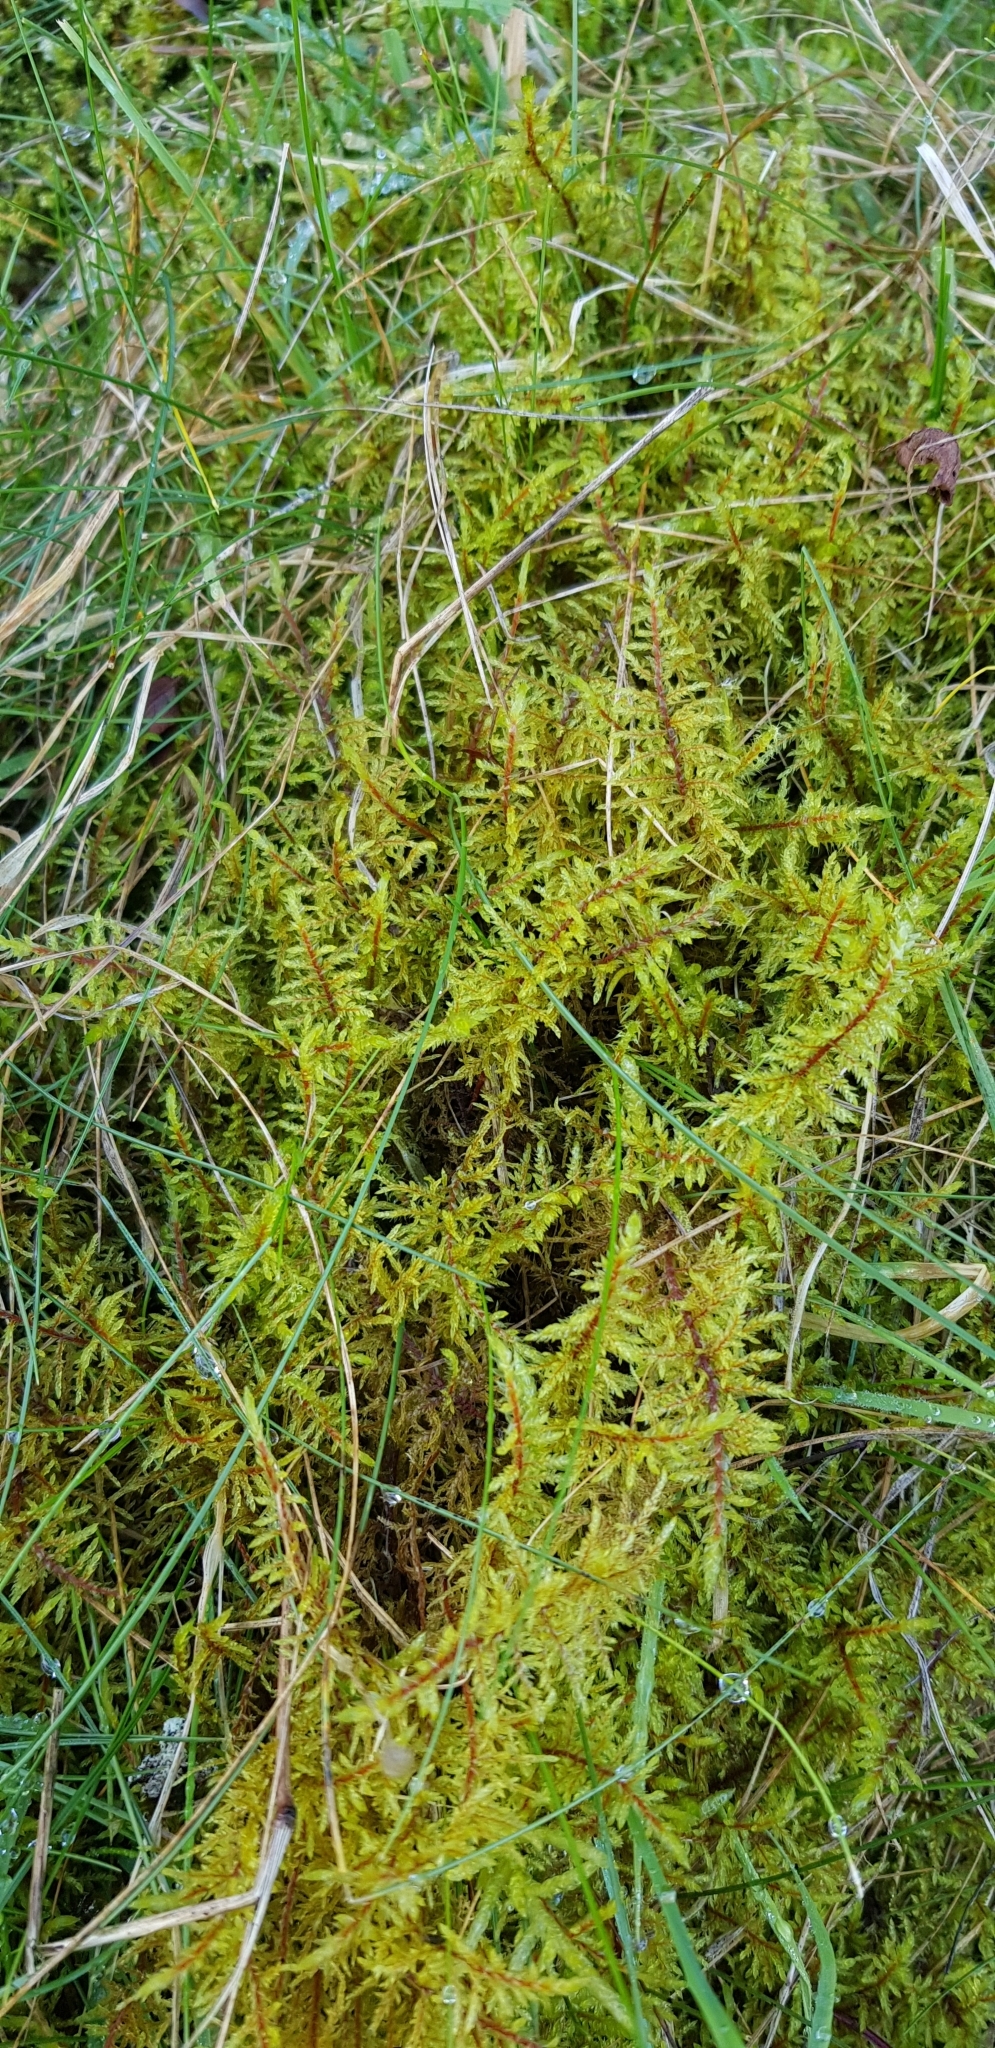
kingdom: Plantae
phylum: Bryophyta
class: Bryopsida
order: Hypnales
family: Hylocomiaceae
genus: Hylocomium
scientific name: Hylocomium splendens
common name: Stairstep moss
